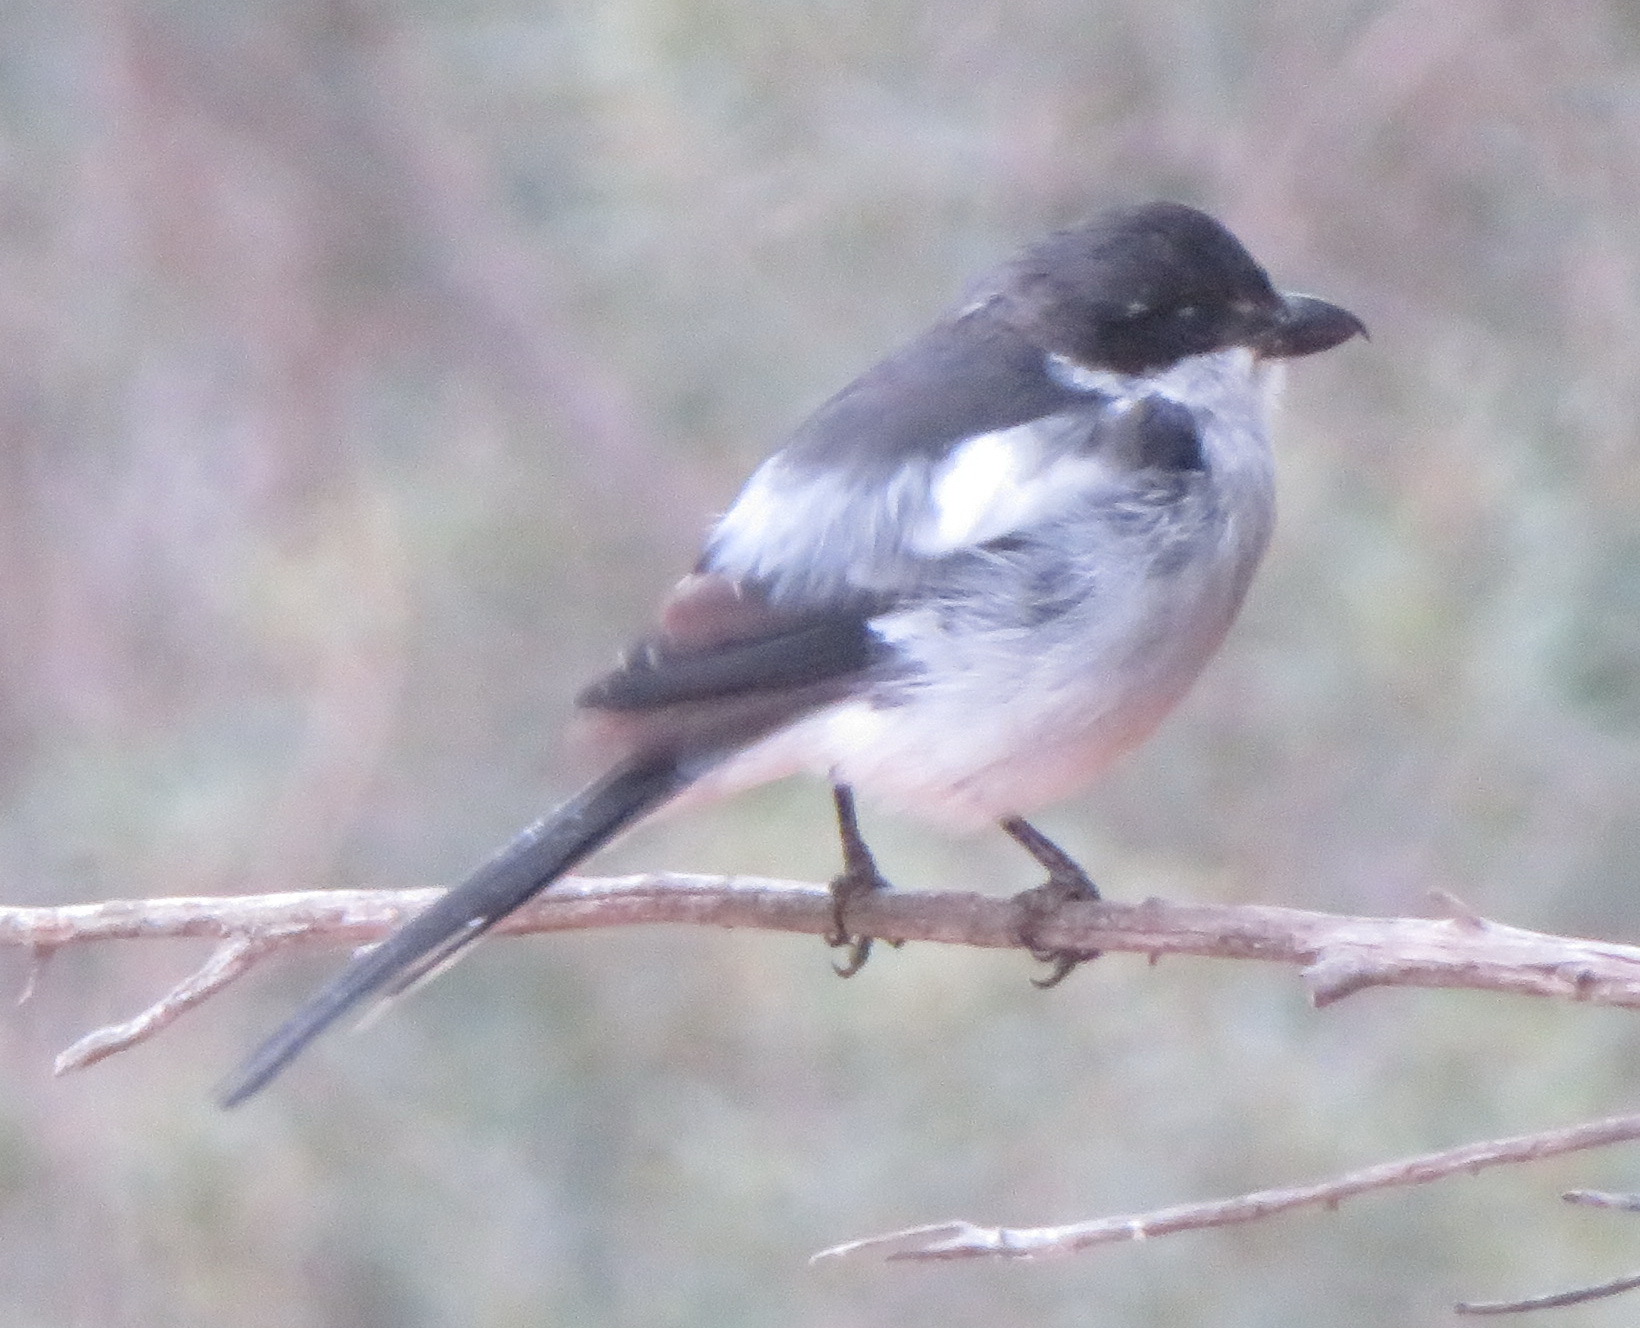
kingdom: Animalia
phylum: Chordata
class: Aves
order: Passeriformes
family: Laniidae
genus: Lanius
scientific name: Lanius collaris
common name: Southern fiscal
